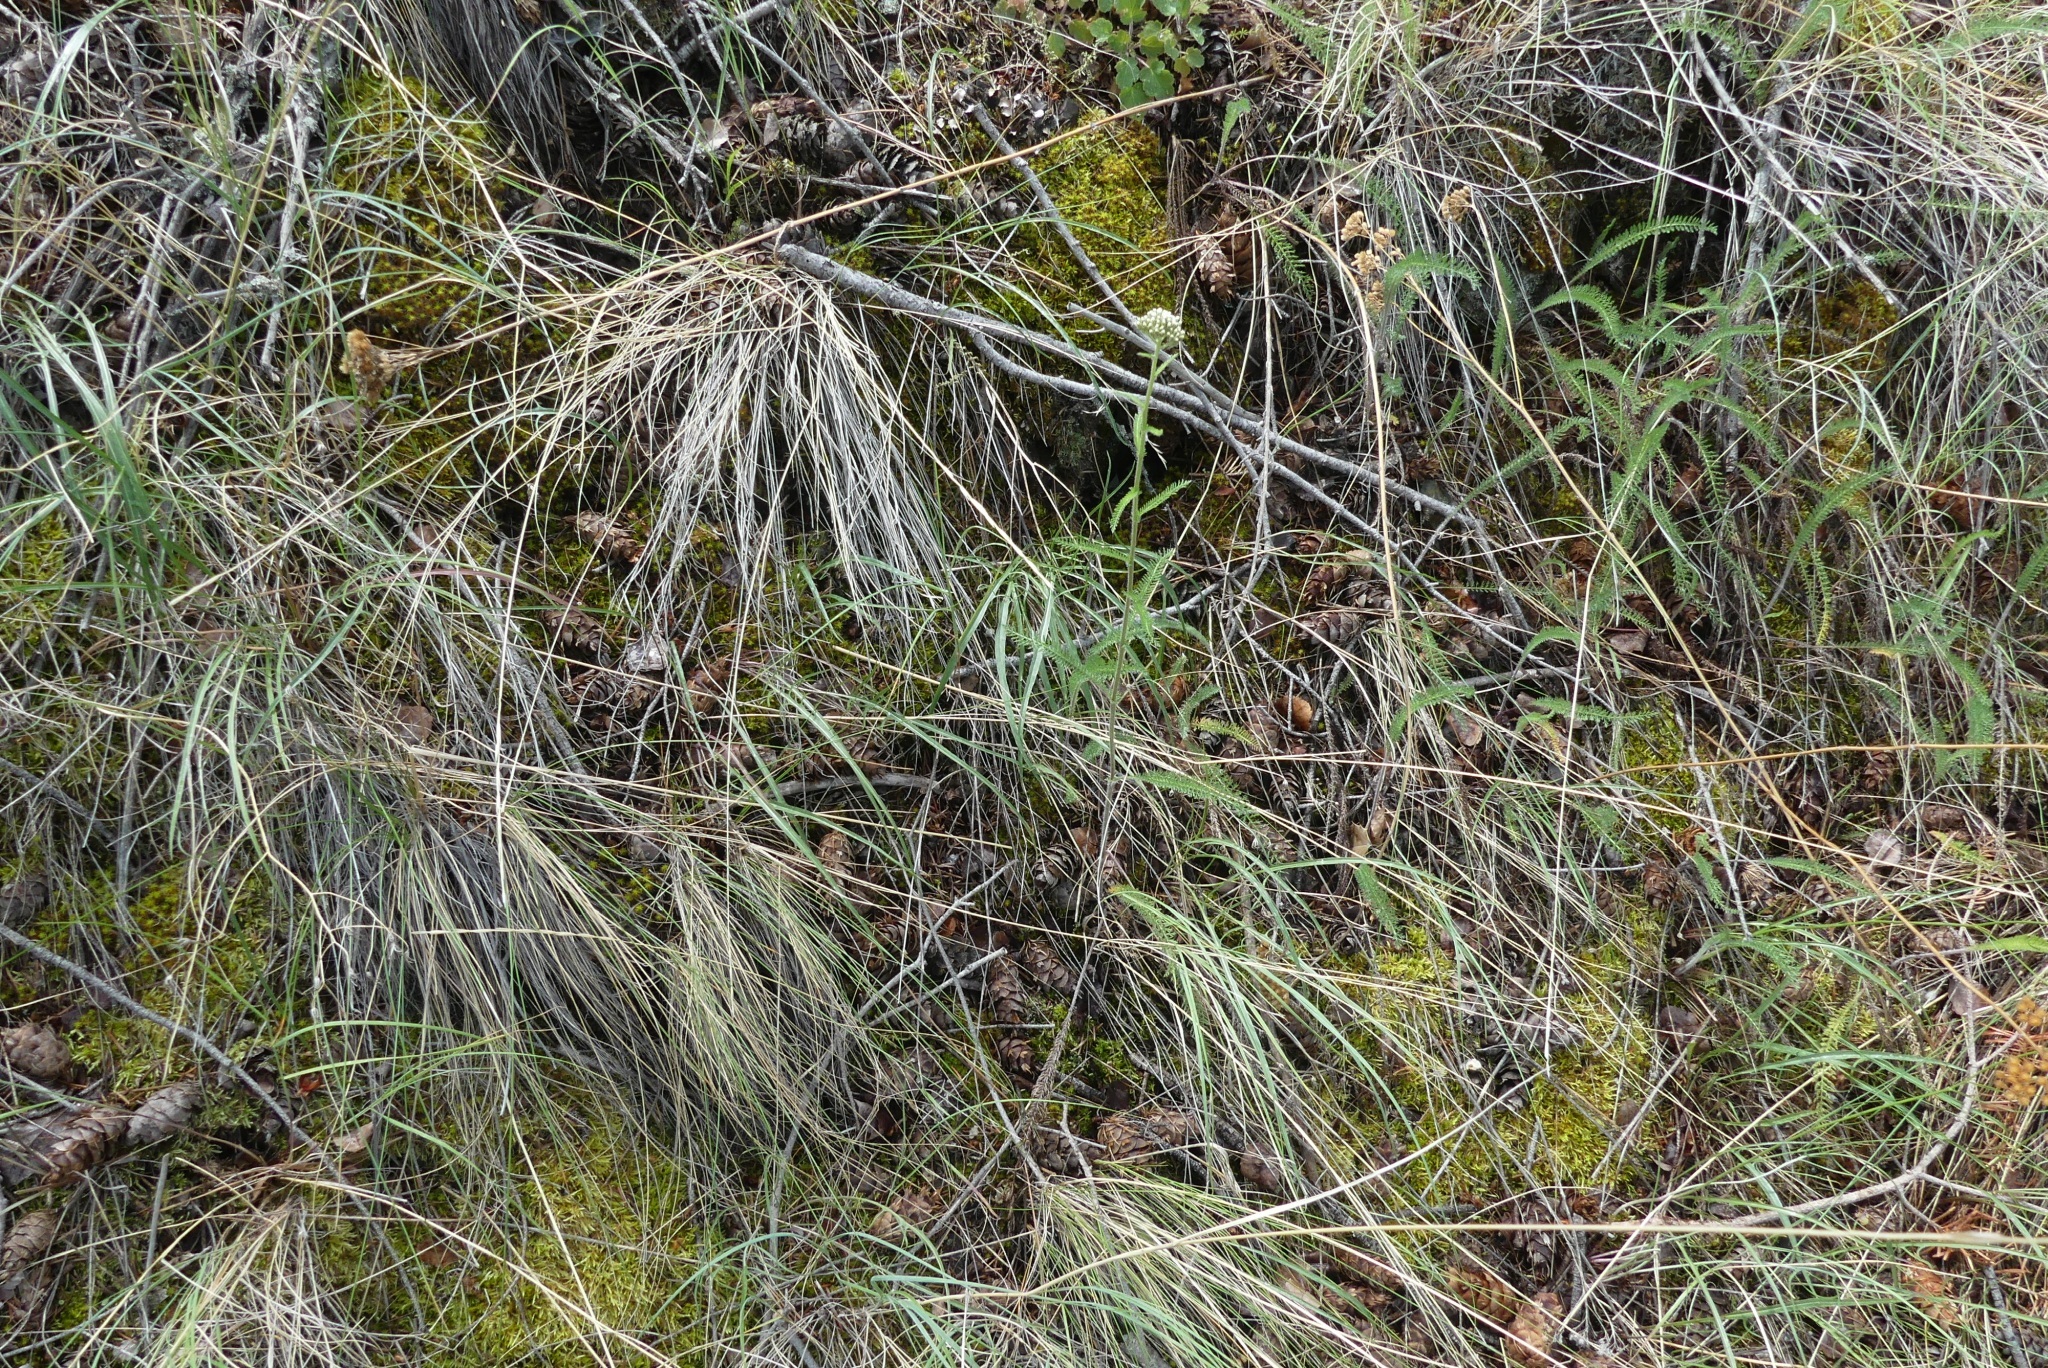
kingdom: Plantae
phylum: Tracheophyta
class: Magnoliopsida
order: Asterales
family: Asteraceae
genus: Achillea
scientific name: Achillea millefolium
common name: Yarrow
